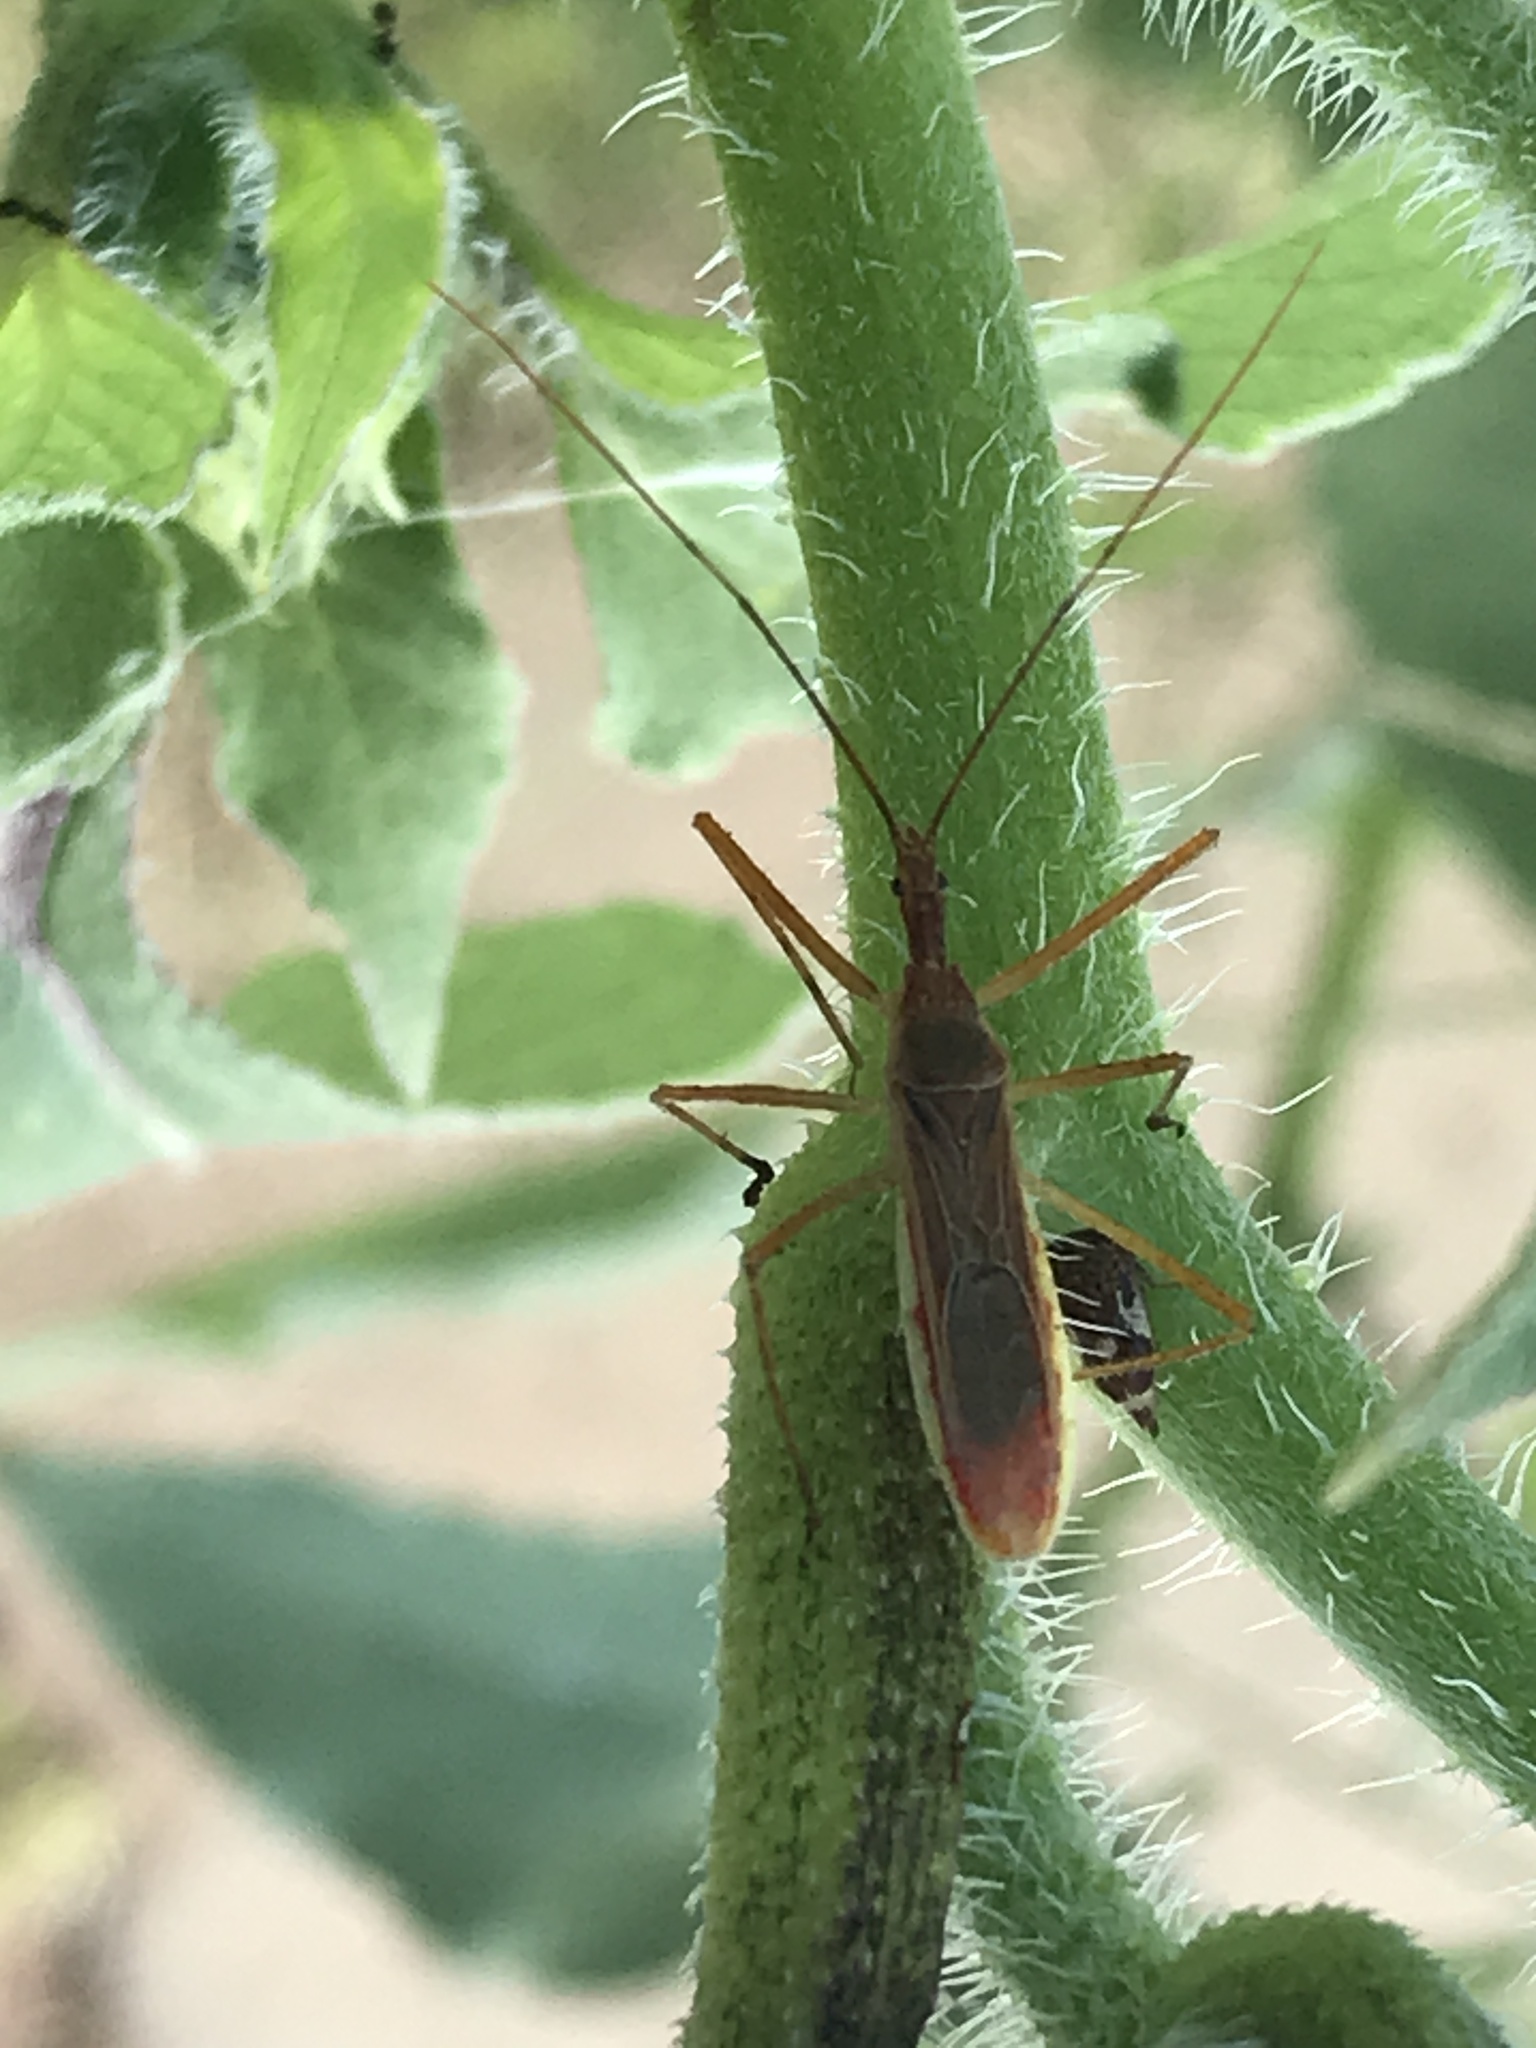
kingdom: Animalia
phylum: Arthropoda
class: Insecta
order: Hemiptera
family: Reduviidae
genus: Zelus
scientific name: Zelus cervicalis
